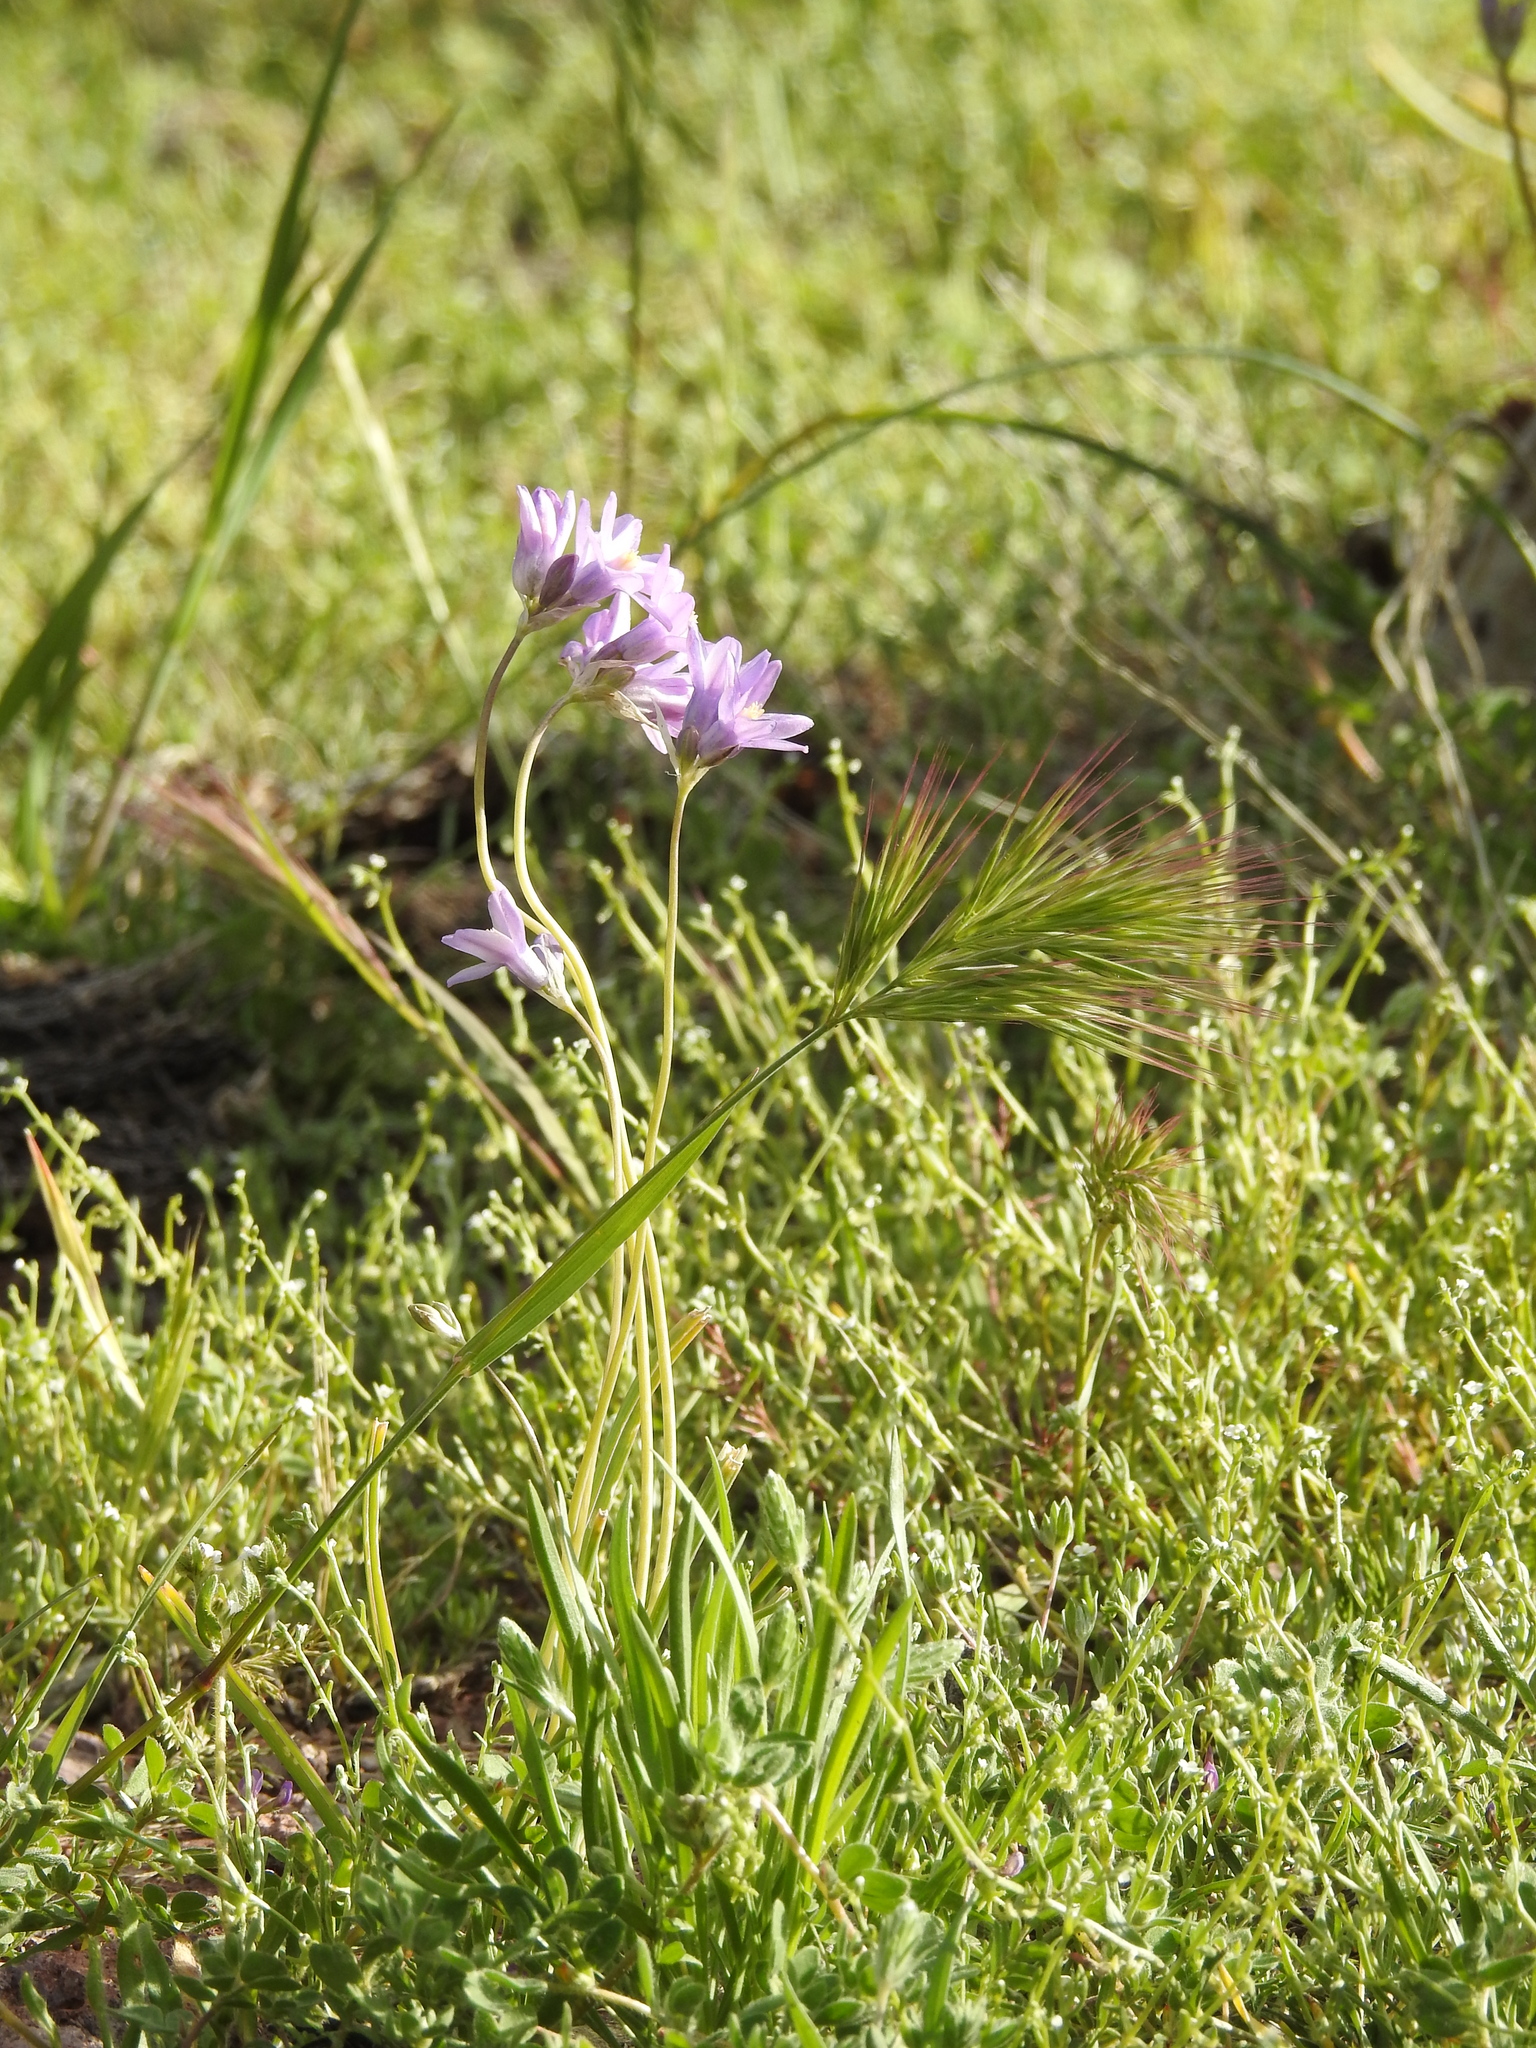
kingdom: Plantae
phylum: Tracheophyta
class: Liliopsida
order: Asparagales
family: Asparagaceae
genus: Dipterostemon
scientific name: Dipterostemon capitatus
